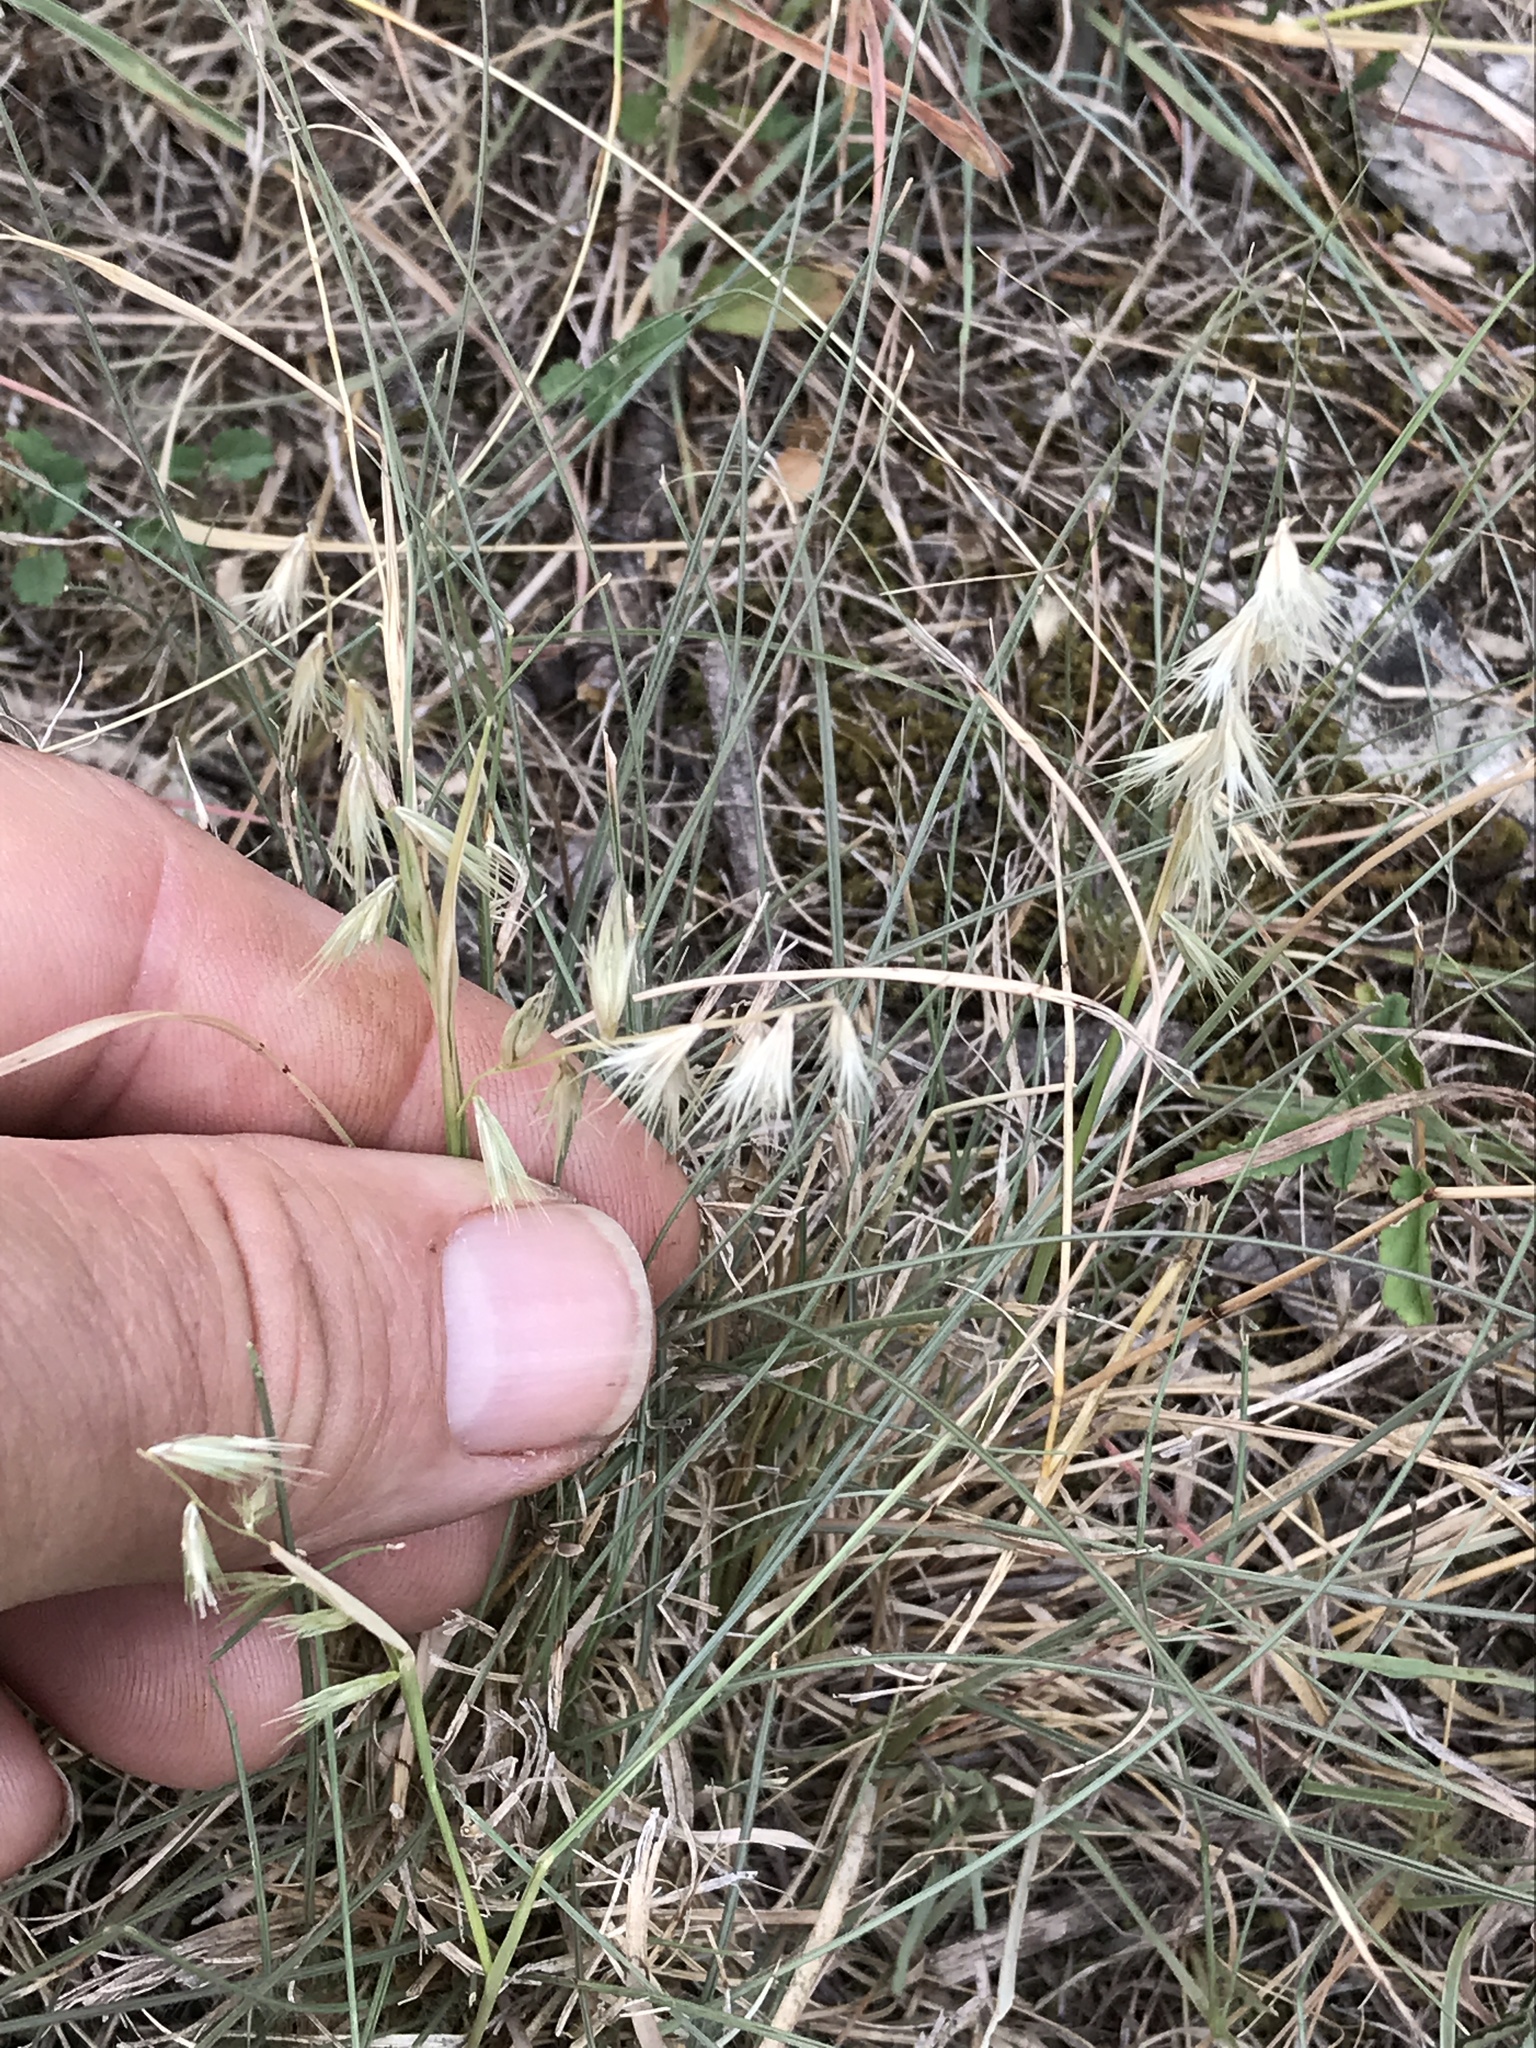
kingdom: Plantae
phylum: Tracheophyta
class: Liliopsida
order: Poales
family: Poaceae
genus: Bouteloua
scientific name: Bouteloua rigidiseta
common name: Texas grama
